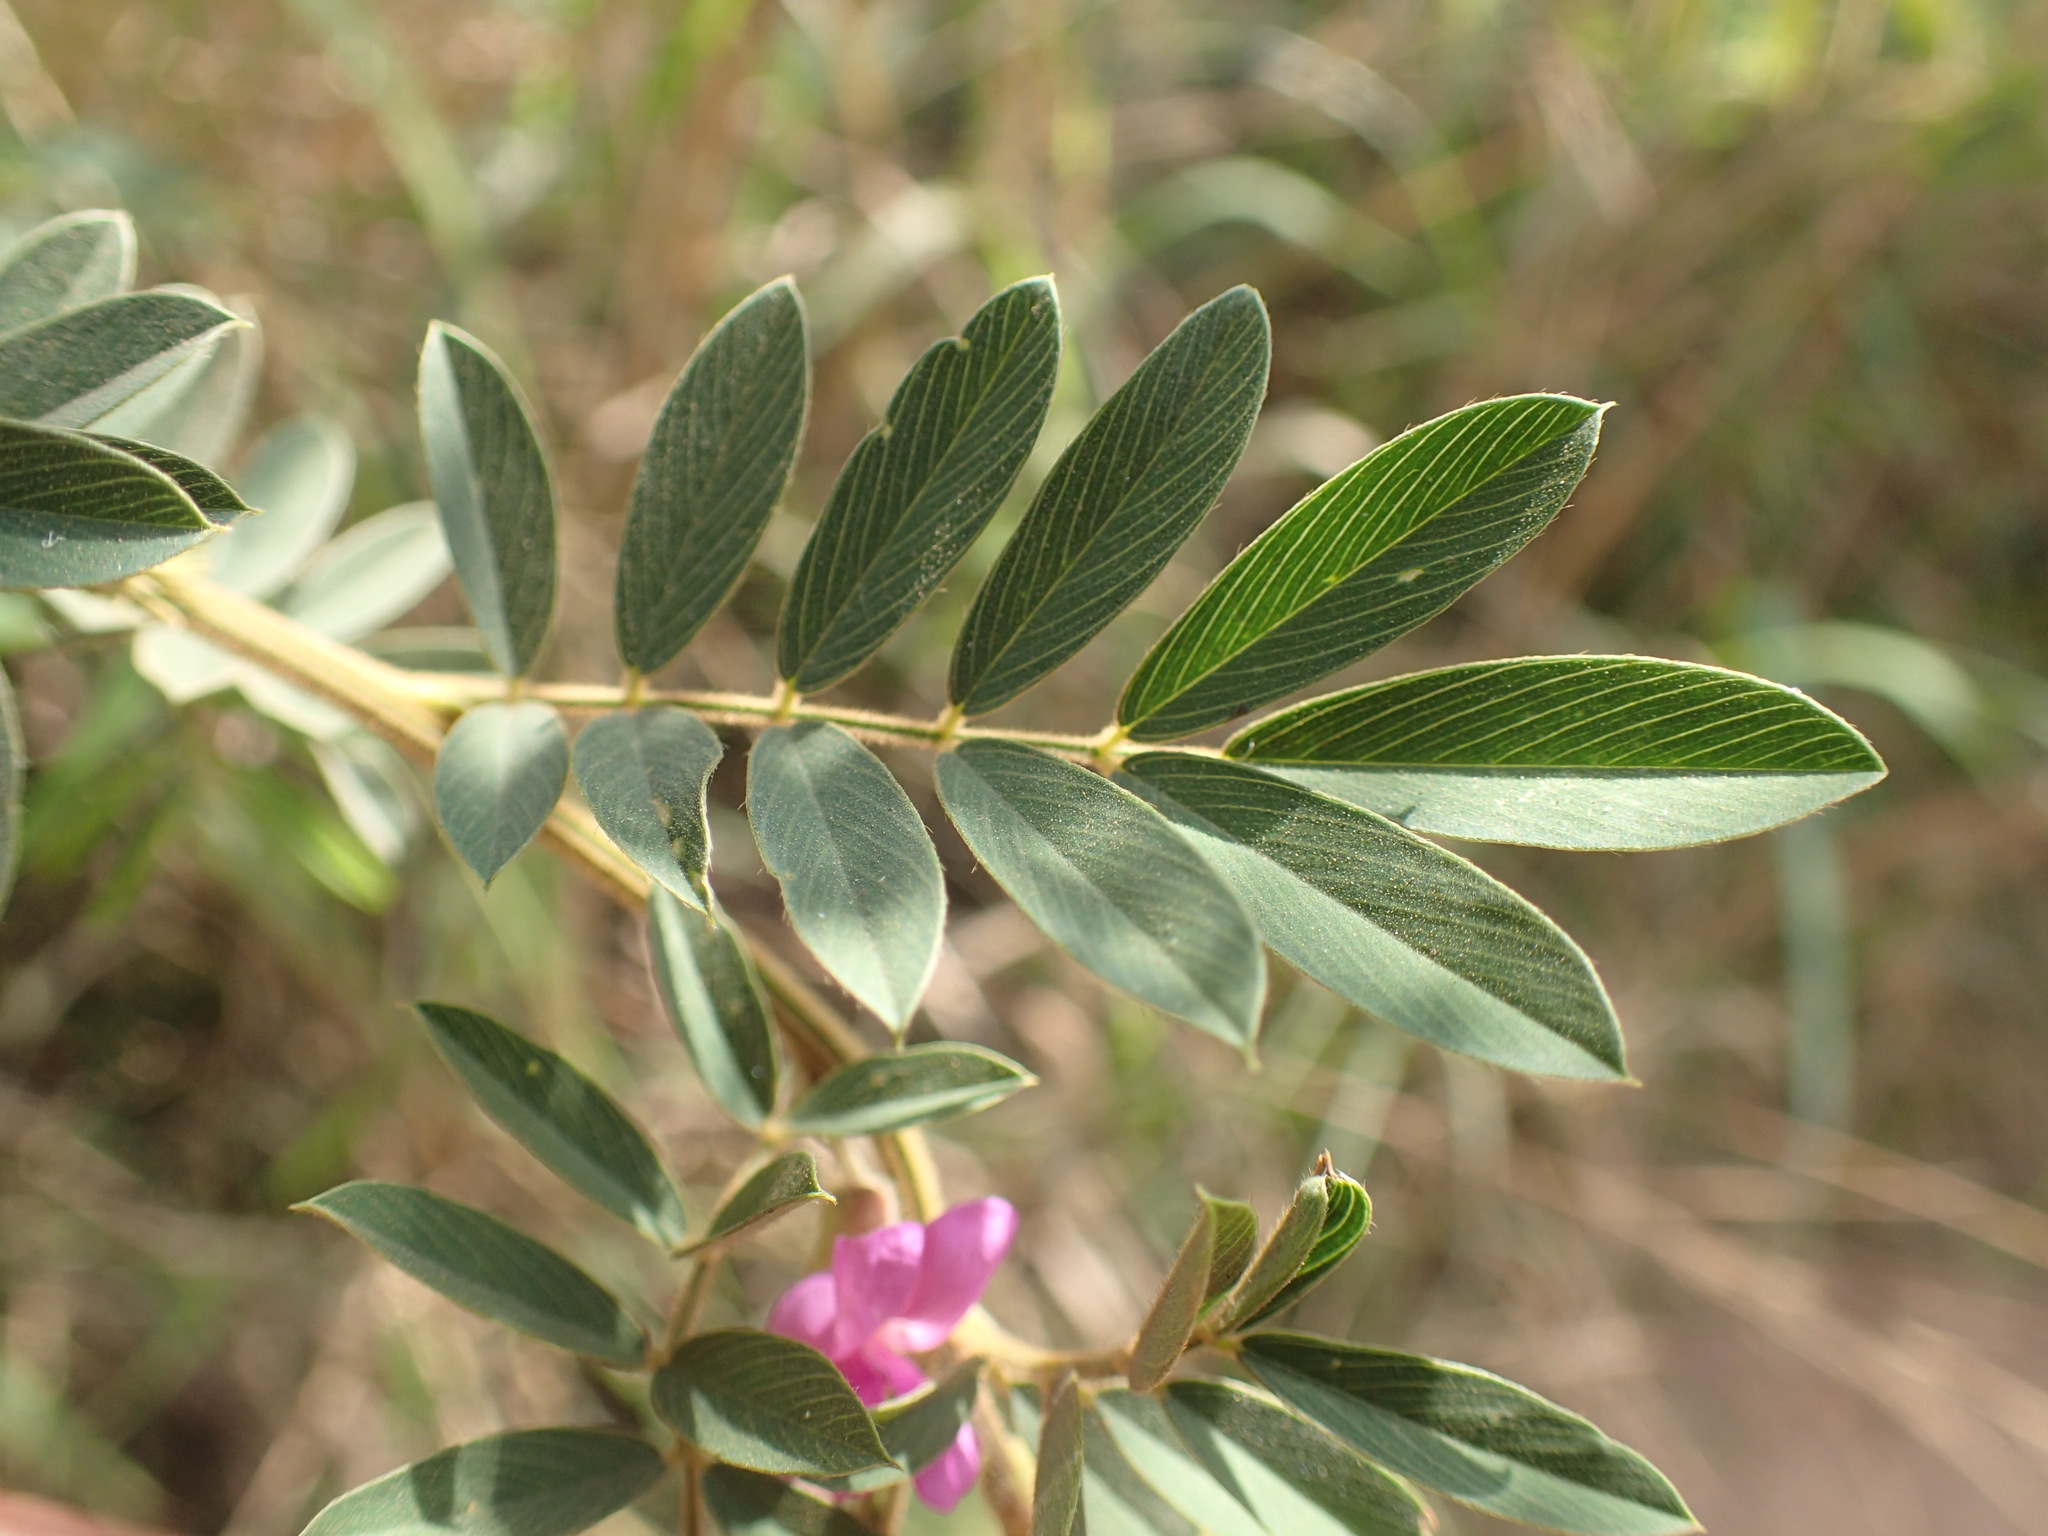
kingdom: Plantae
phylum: Tracheophyta
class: Magnoliopsida
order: Fabales
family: Fabaceae
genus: Tephrosia
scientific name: Tephrosia polystachya
